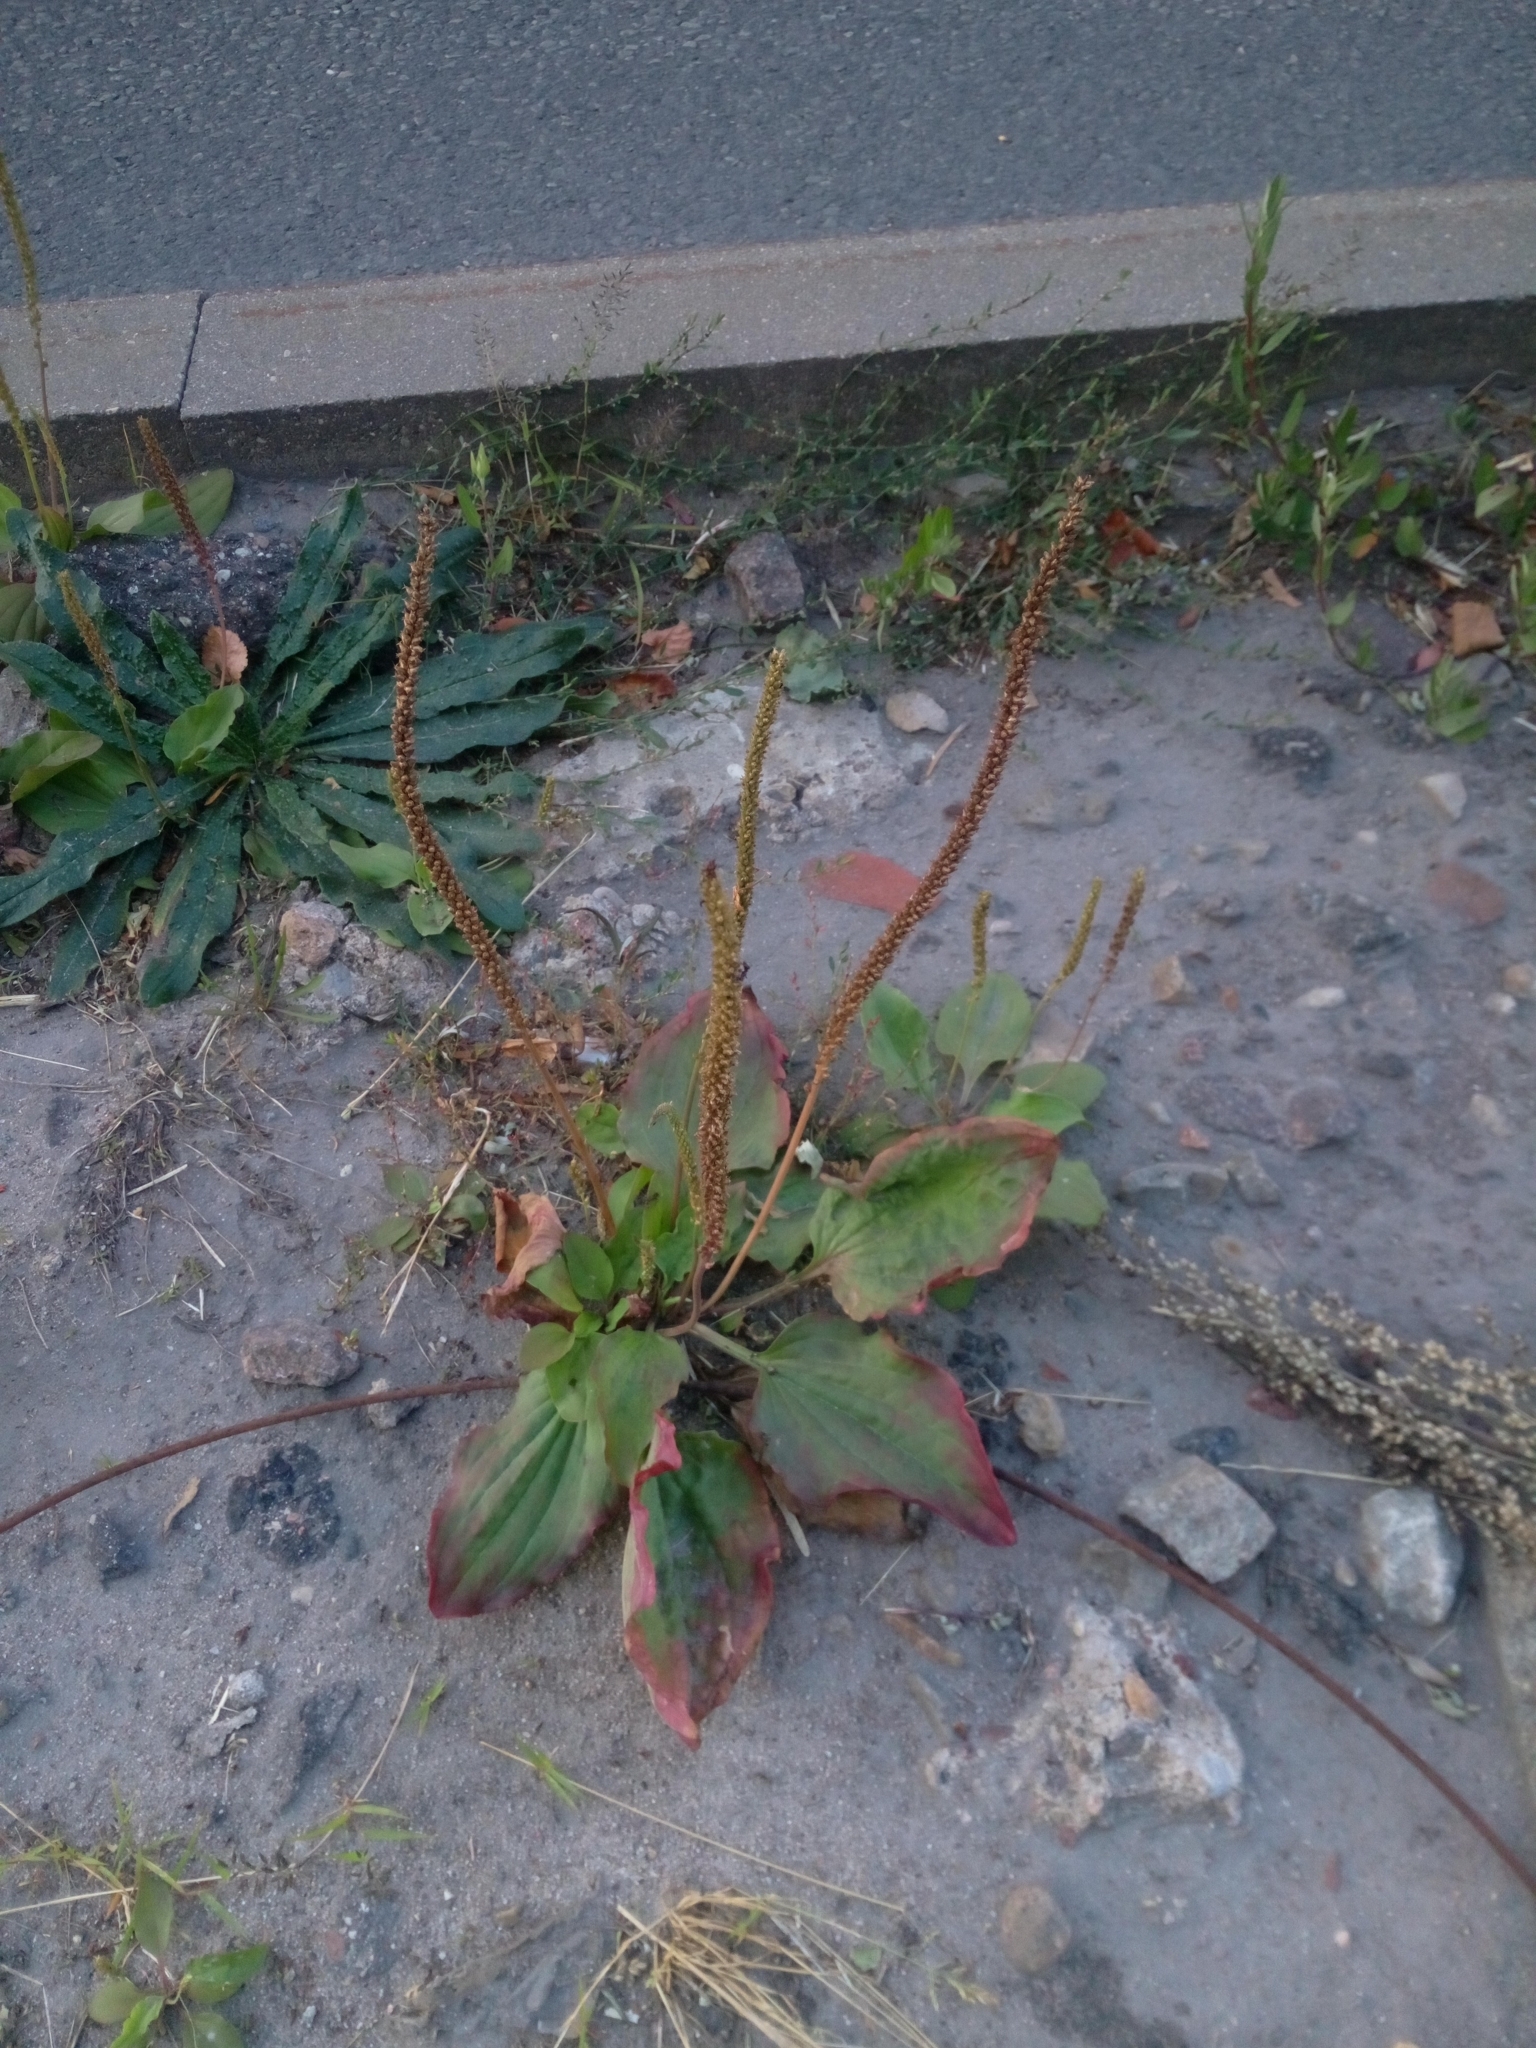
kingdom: Plantae
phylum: Tracheophyta
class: Magnoliopsida
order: Lamiales
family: Plantaginaceae
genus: Plantago
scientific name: Plantago major
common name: Common plantain
